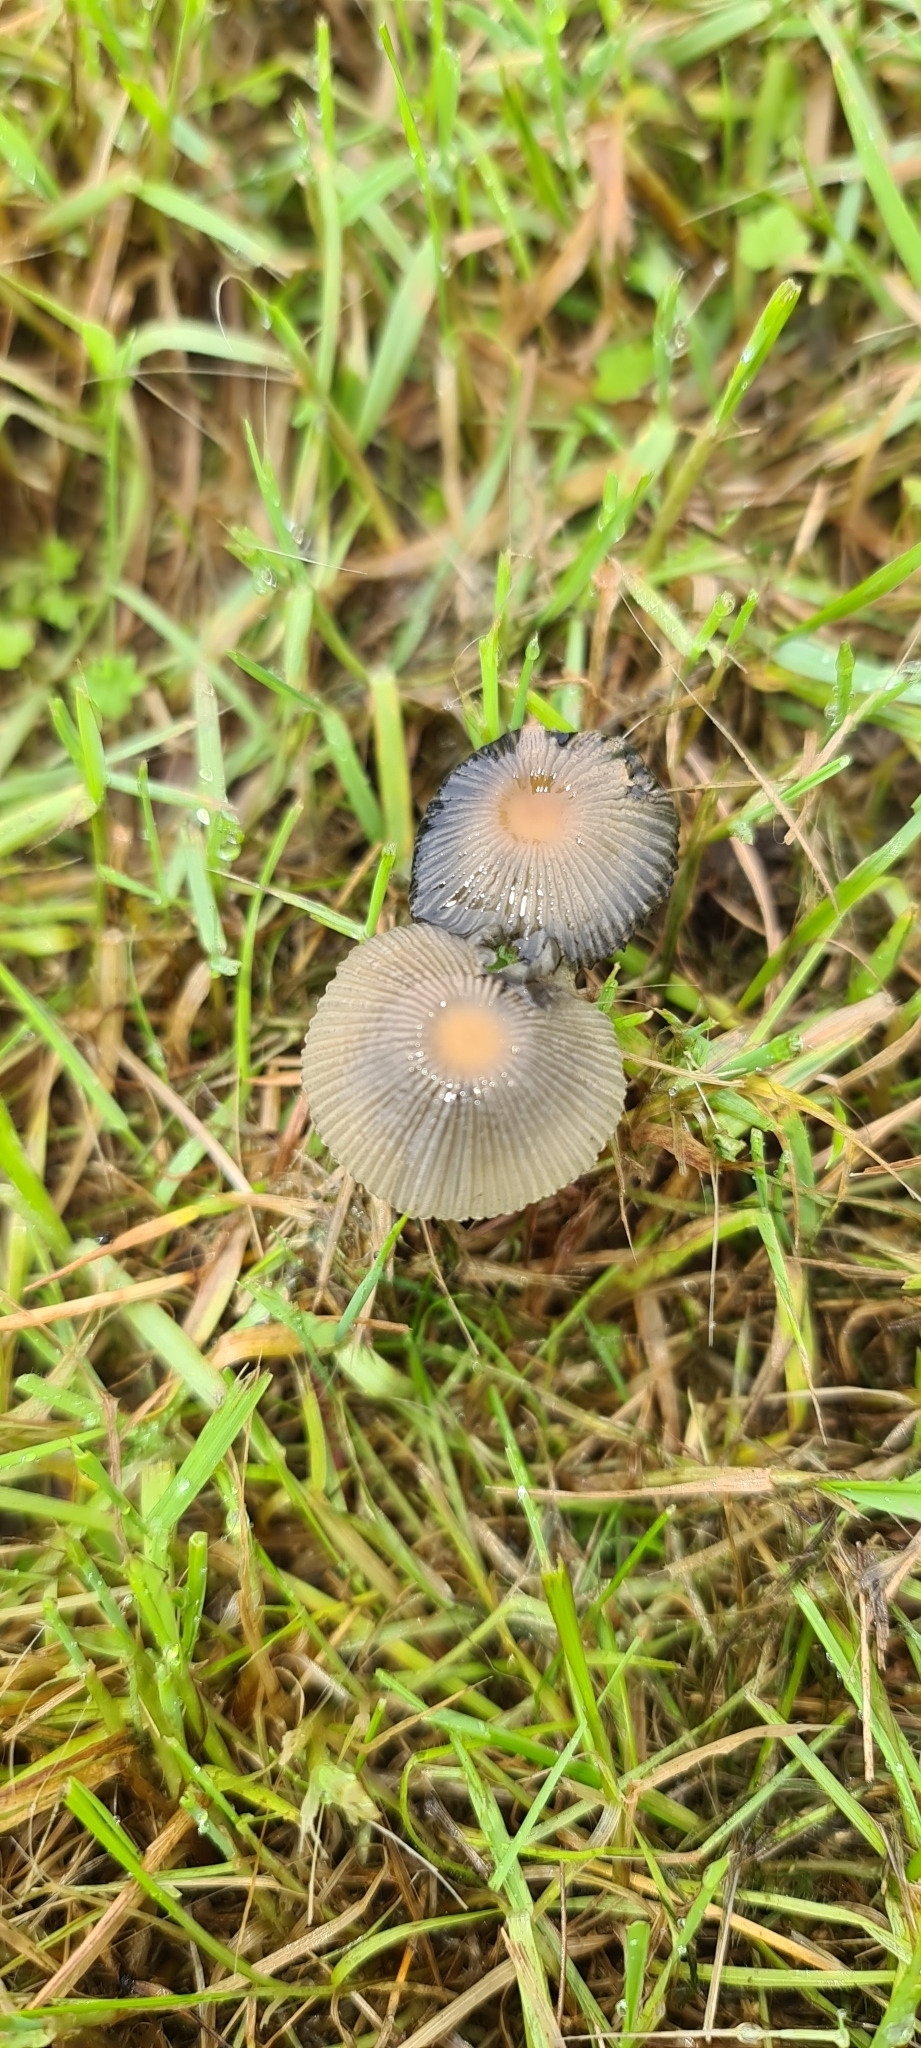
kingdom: Fungi
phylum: Basidiomycota
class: Agaricomycetes
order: Agaricales
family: Psathyrellaceae
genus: Parasola
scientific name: Parasola plicatilis
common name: Pleated inkcap
